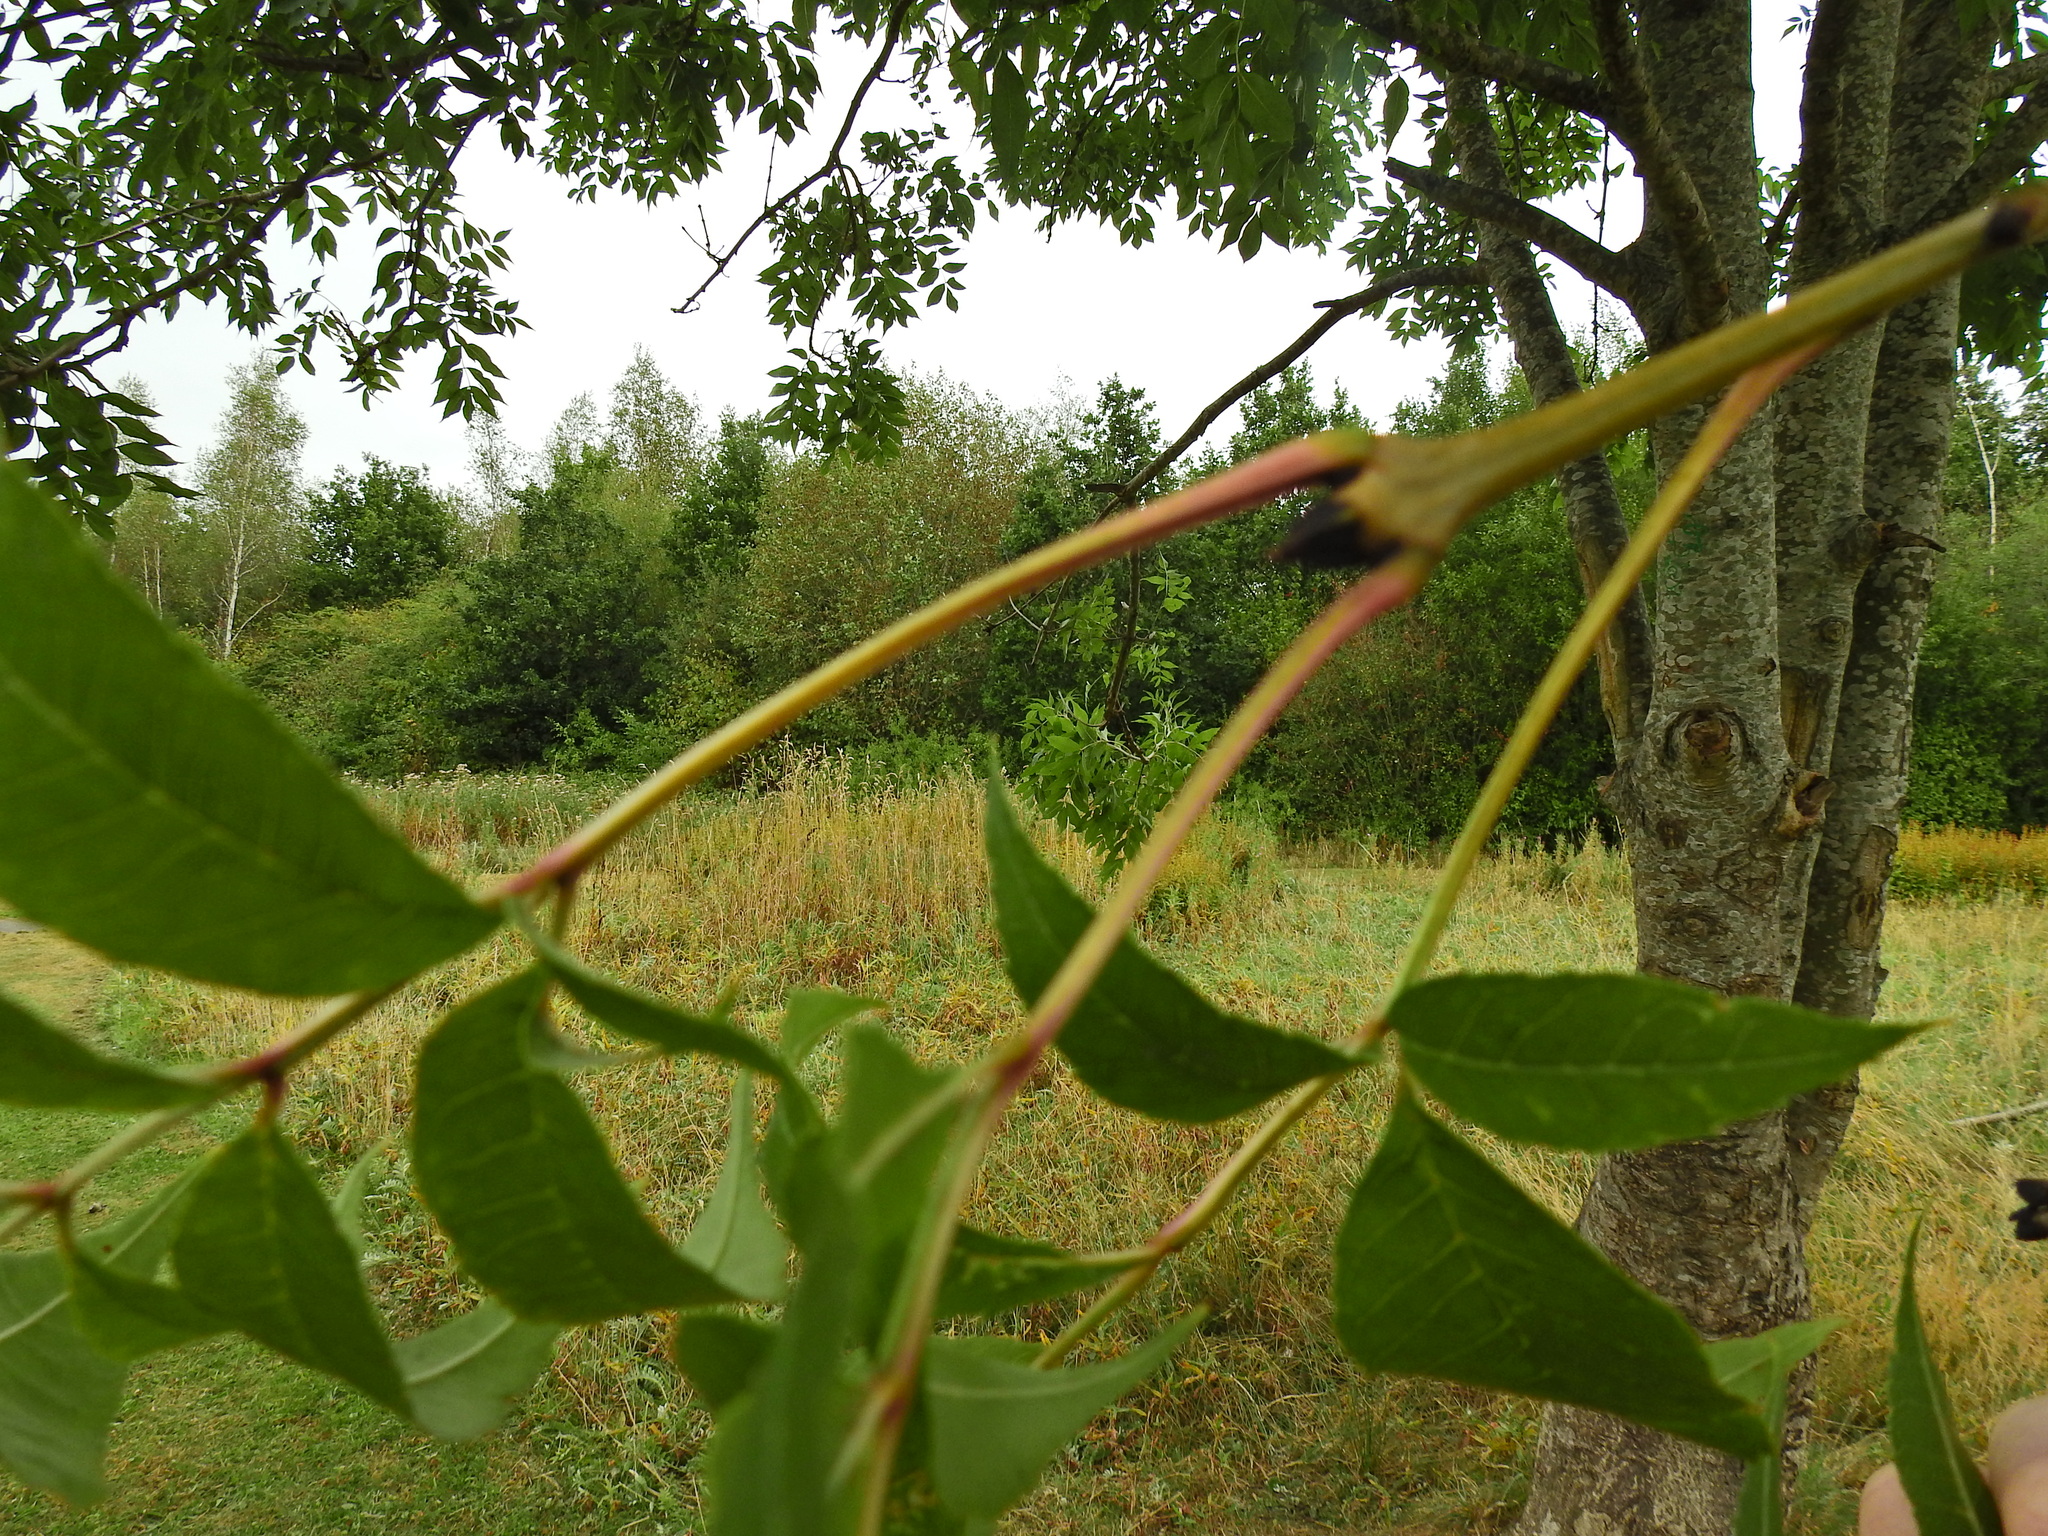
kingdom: Plantae
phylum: Tracheophyta
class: Magnoliopsida
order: Lamiales
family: Oleaceae
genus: Fraxinus
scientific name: Fraxinus excelsior
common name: European ash
